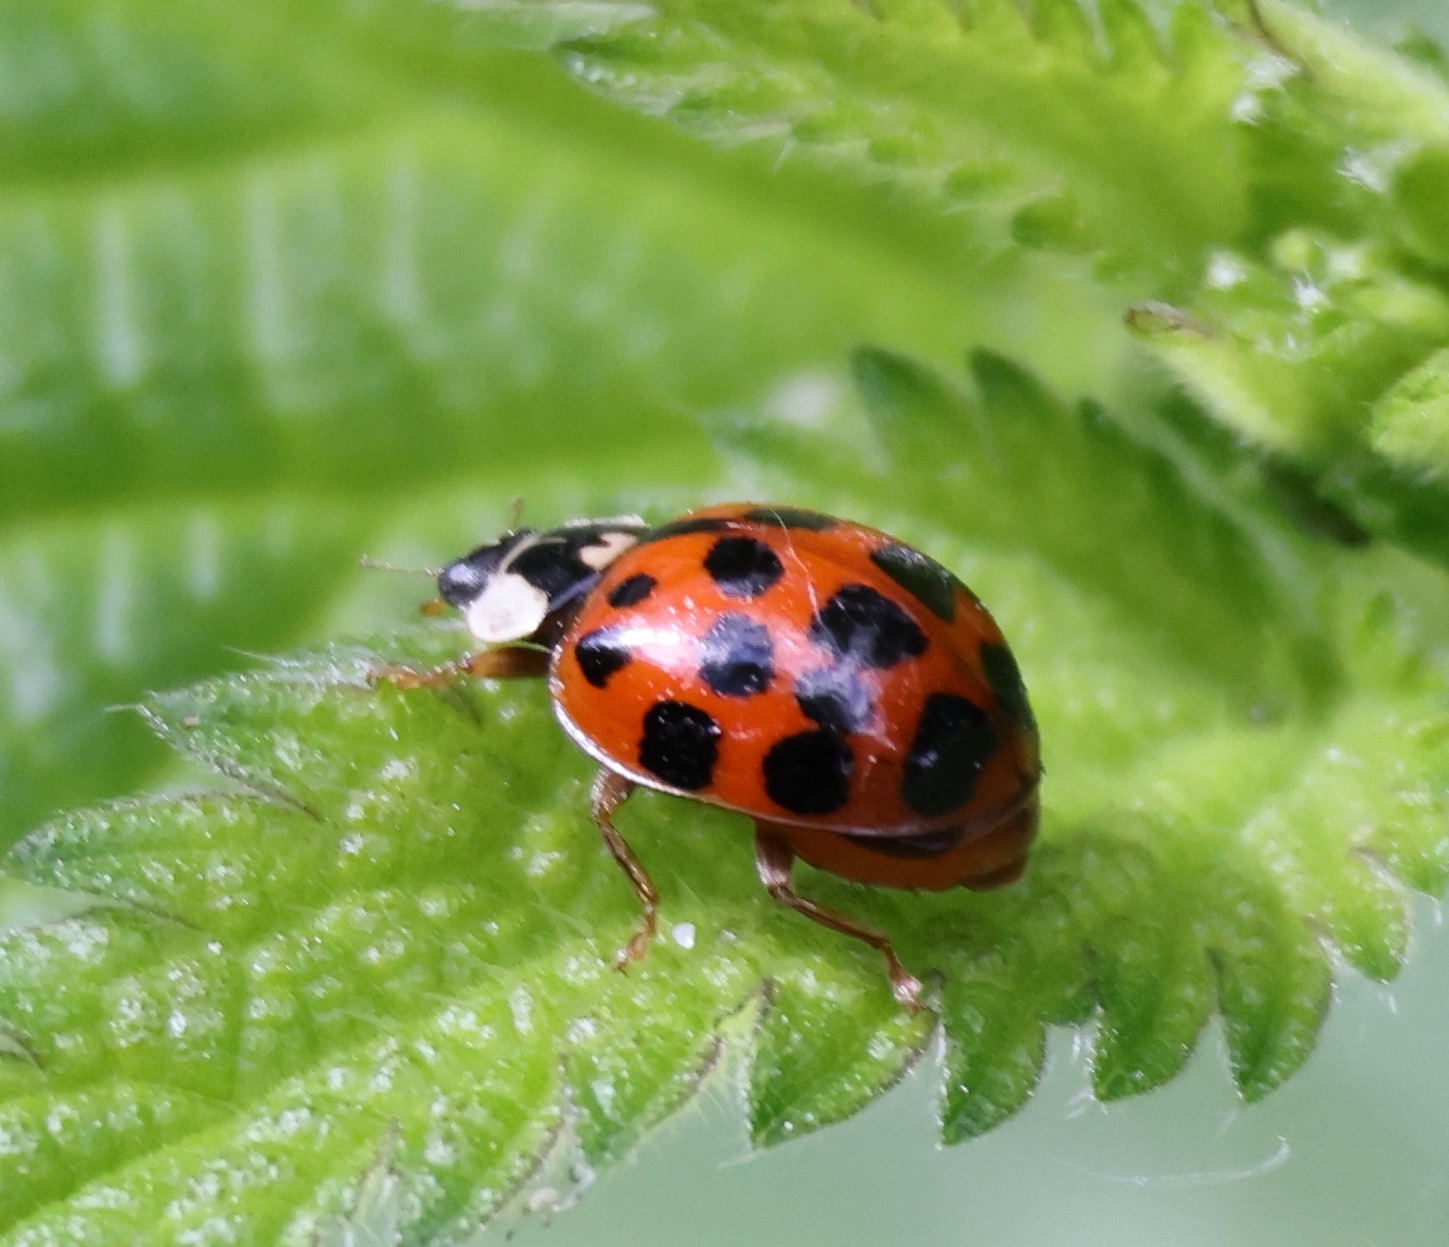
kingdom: Animalia
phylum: Arthropoda
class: Insecta
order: Coleoptera
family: Coccinellidae
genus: Harmonia
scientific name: Harmonia axyridis
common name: Harlequin ladybird
